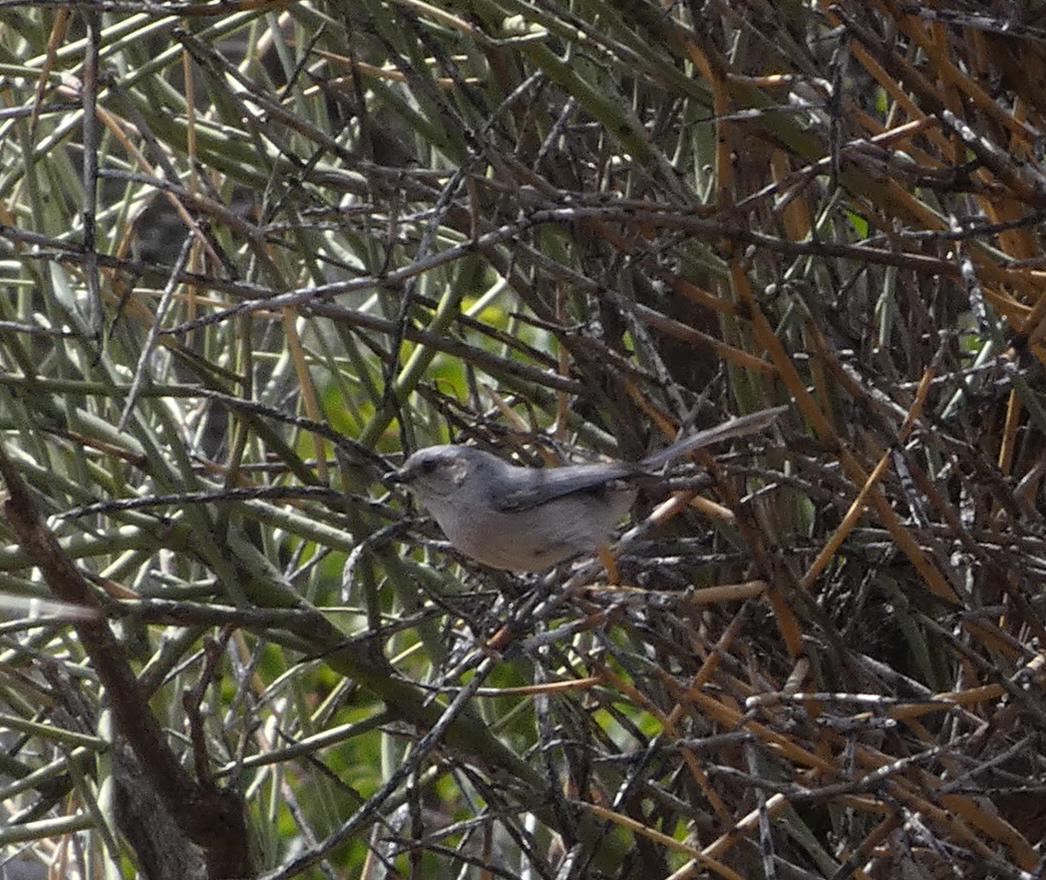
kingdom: Animalia
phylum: Chordata
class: Aves
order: Passeriformes
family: Aegithalidae
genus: Psaltriparus
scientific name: Psaltriparus minimus
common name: American bushtit
